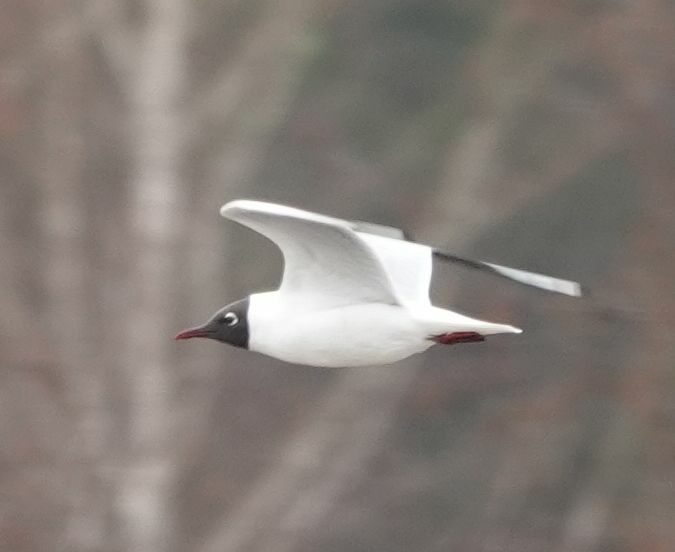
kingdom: Animalia
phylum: Chordata
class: Aves
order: Charadriiformes
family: Laridae
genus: Chroicocephalus
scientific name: Chroicocephalus ridibundus
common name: Black-headed gull
